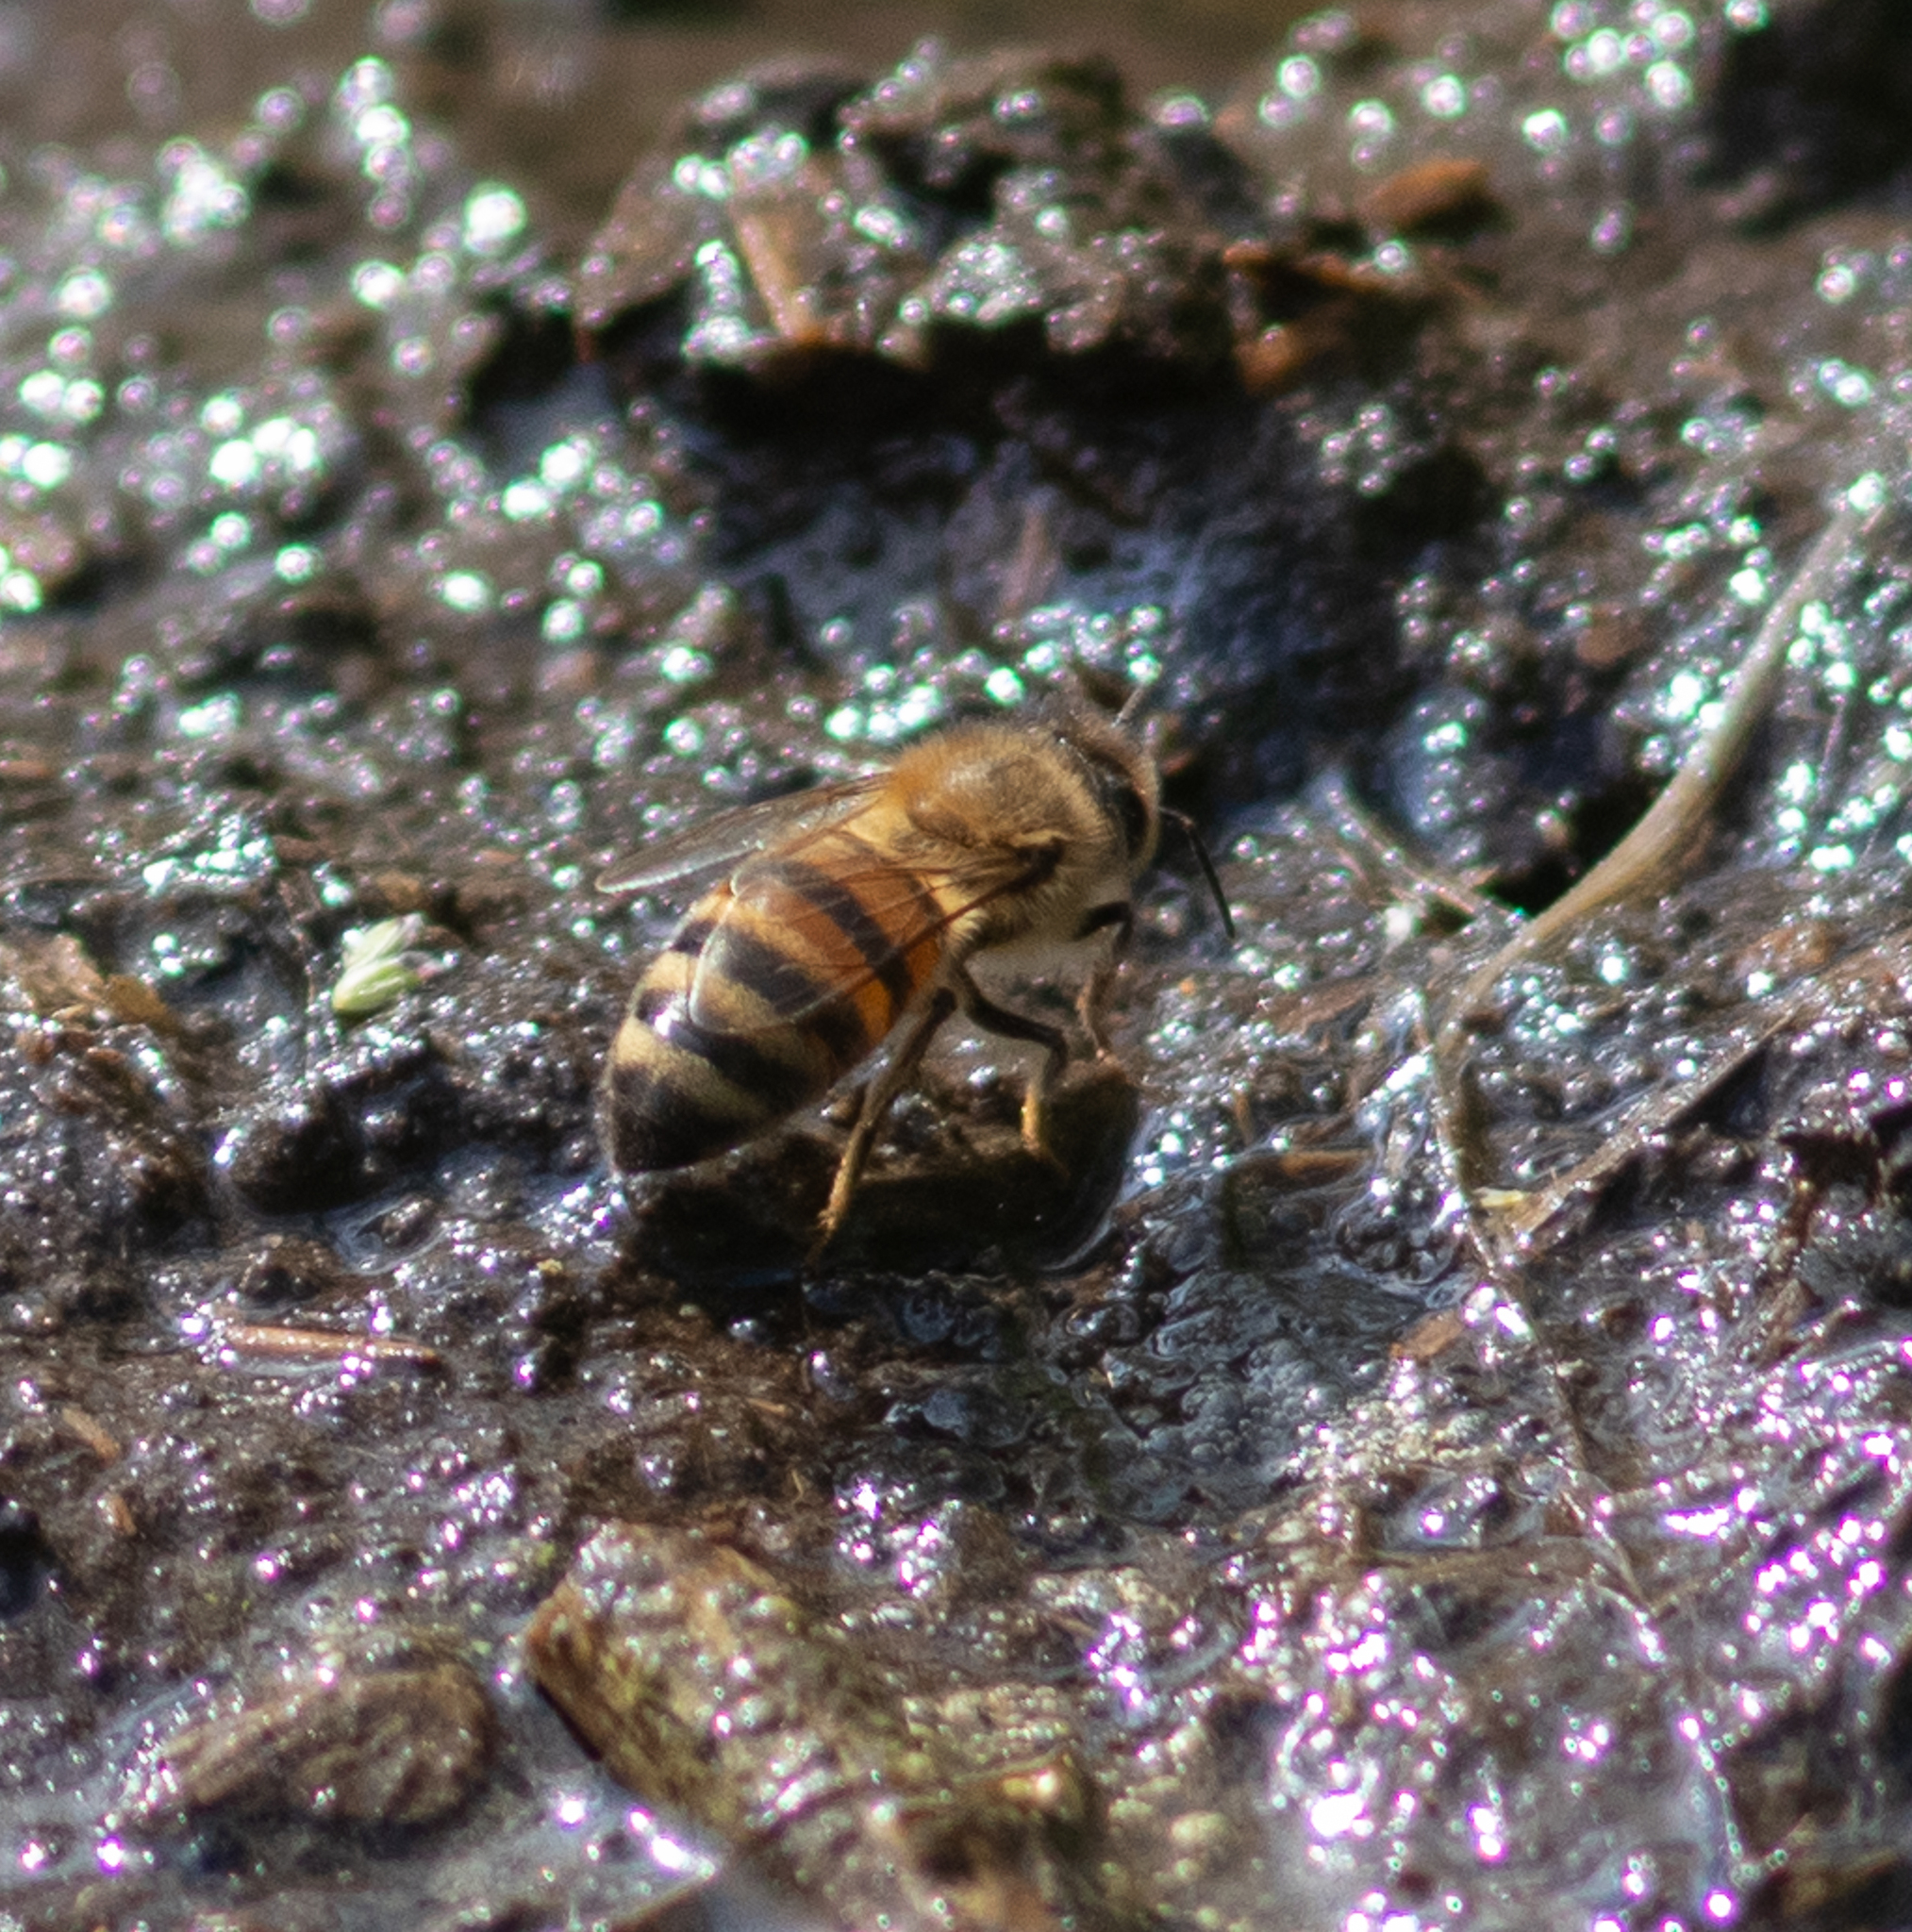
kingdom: Animalia
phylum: Arthropoda
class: Insecta
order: Hymenoptera
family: Apidae
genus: Apis
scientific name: Apis mellifera
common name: Honey bee
